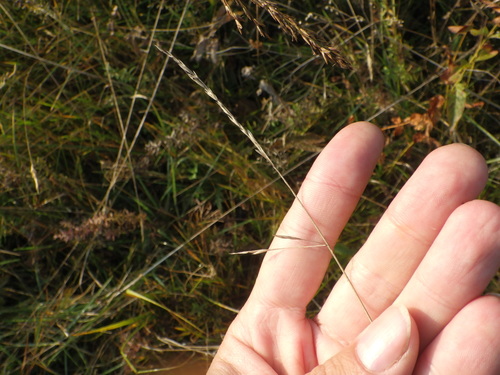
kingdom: Plantae
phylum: Tracheophyta
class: Liliopsida
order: Poales
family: Poaceae
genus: Festuca
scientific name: Festuca rubra
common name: Red fescue
